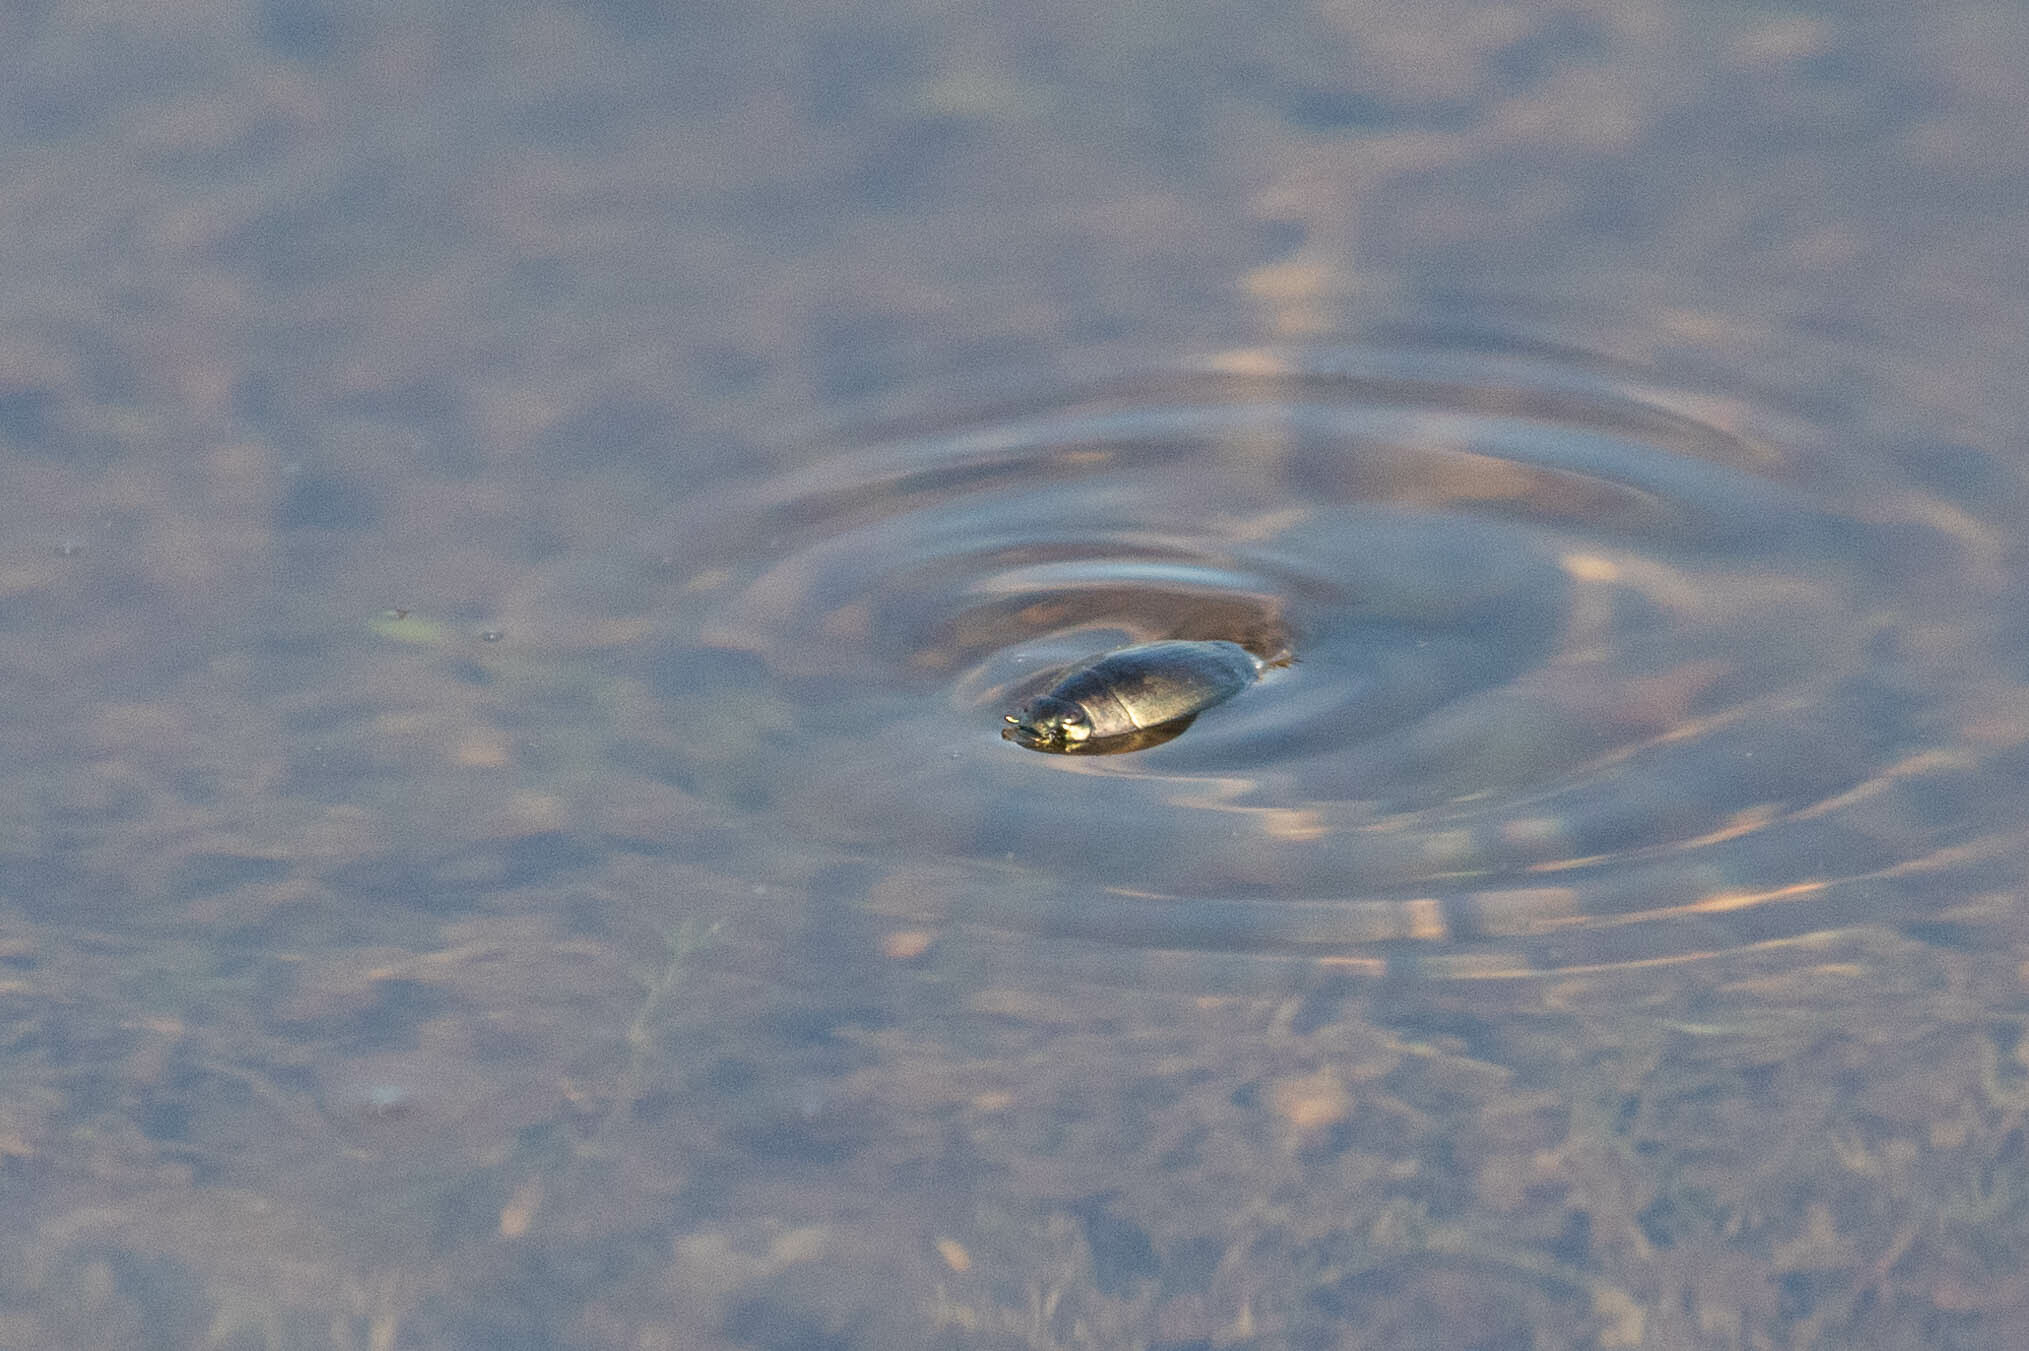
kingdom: Animalia
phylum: Arthropoda
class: Insecta
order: Coleoptera
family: Gyrinidae
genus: Dineutus
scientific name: Dineutus
